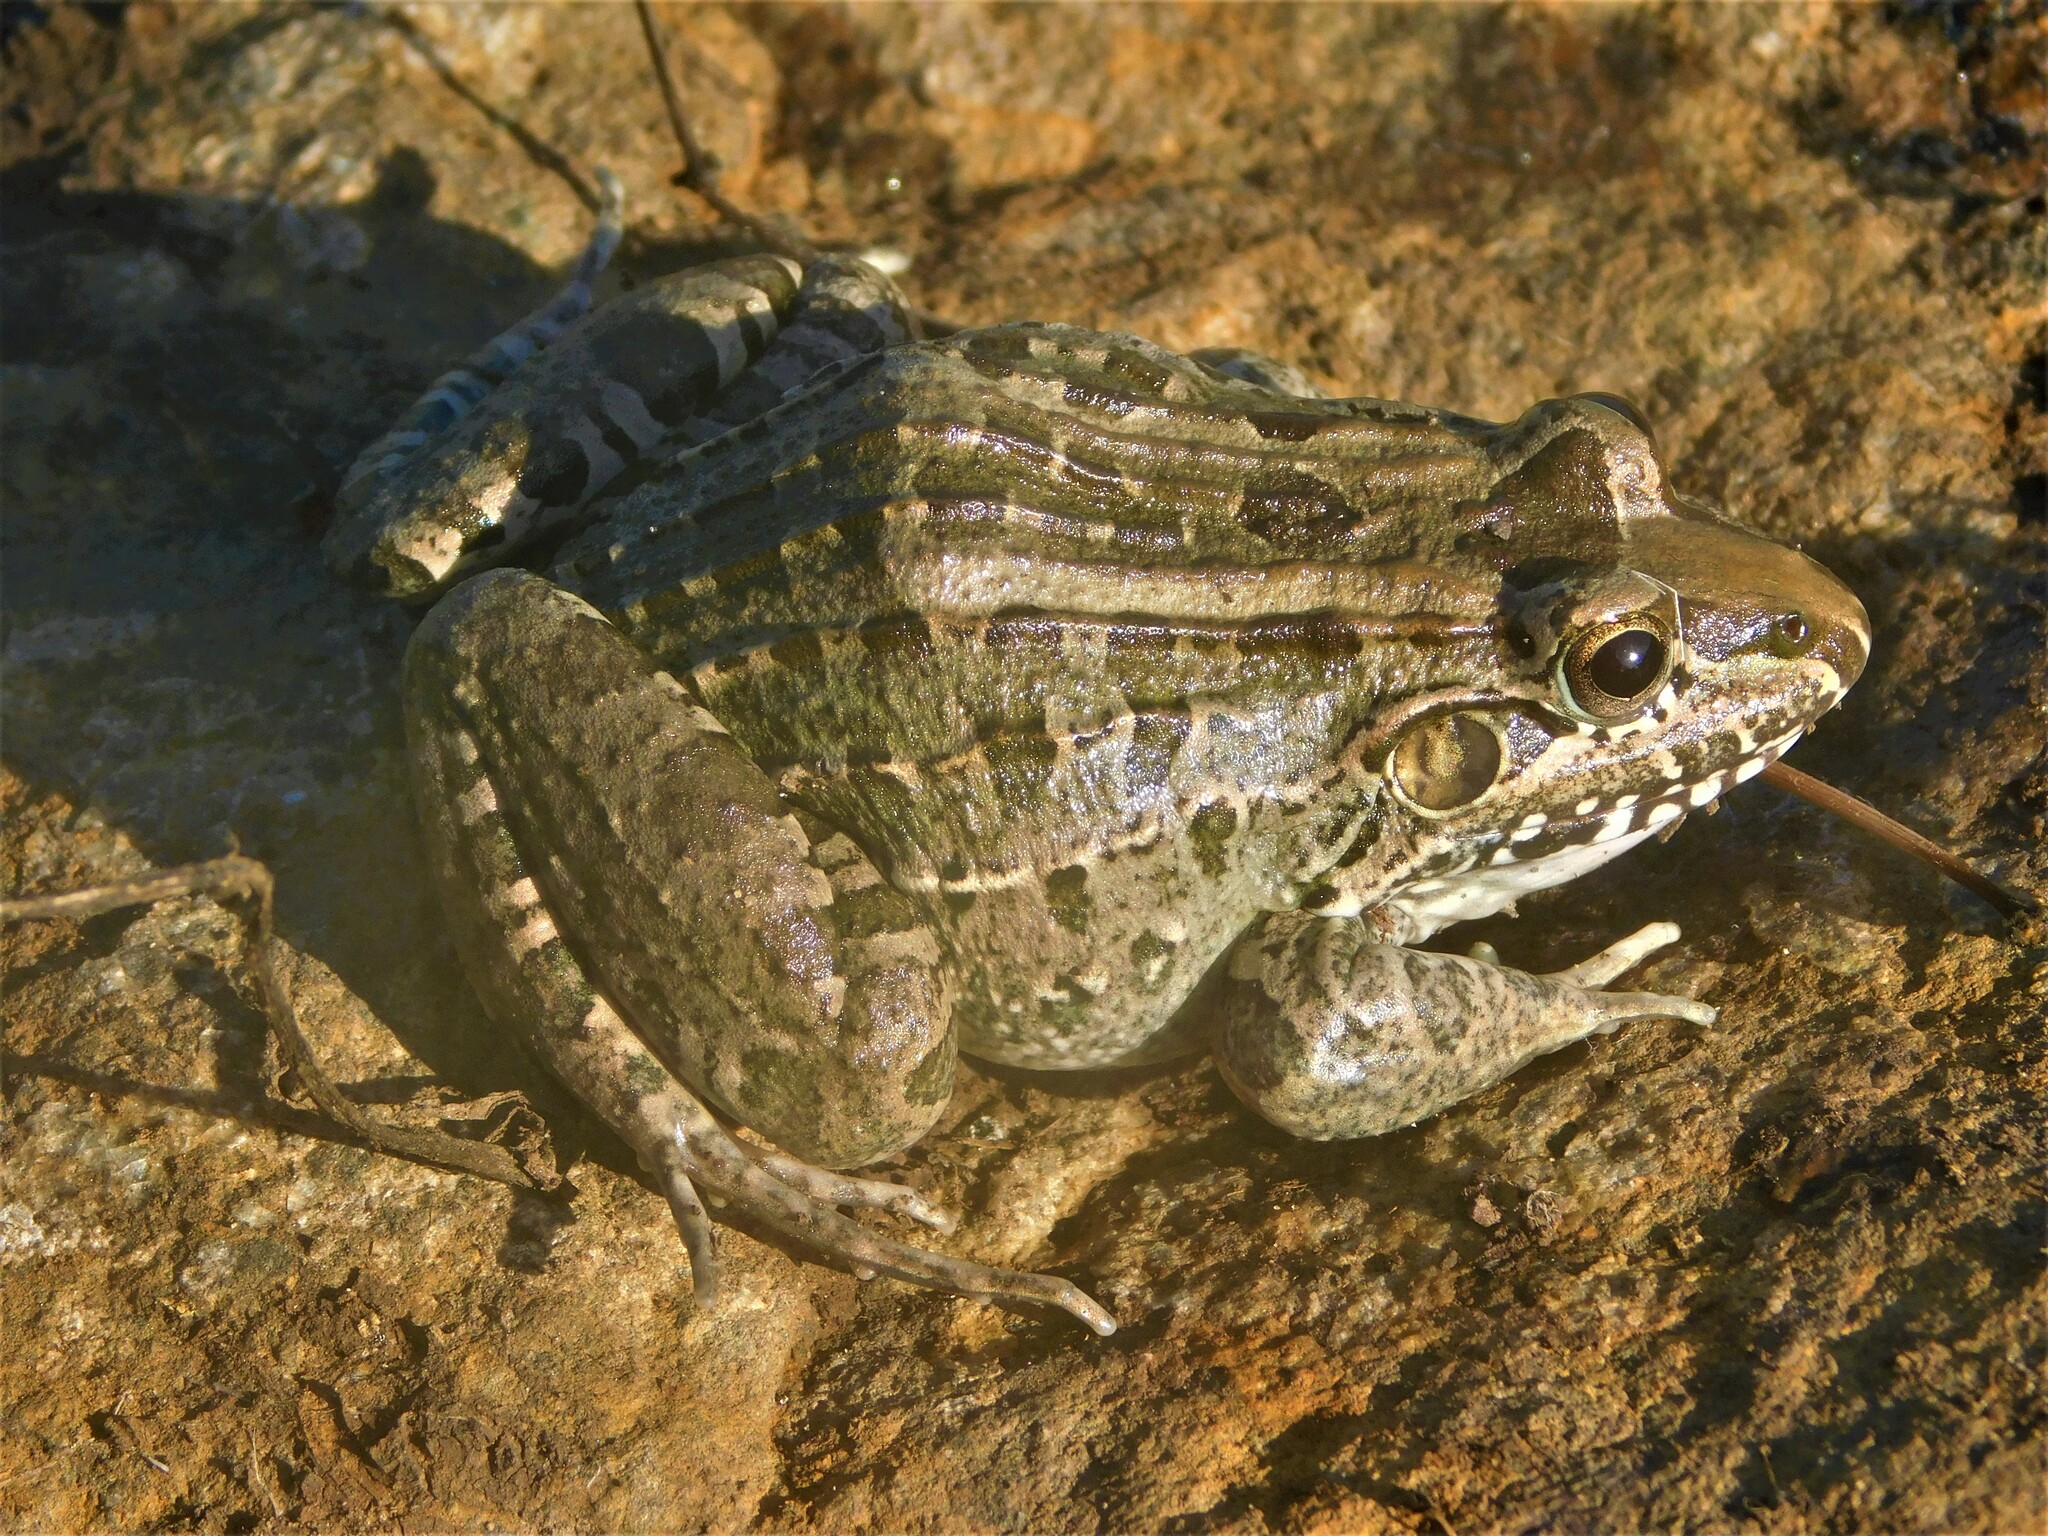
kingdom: Animalia
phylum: Chordata
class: Amphibia
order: Anura
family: Leptodactylidae
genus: Leptodactylus
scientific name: Leptodactylus macrosternum
